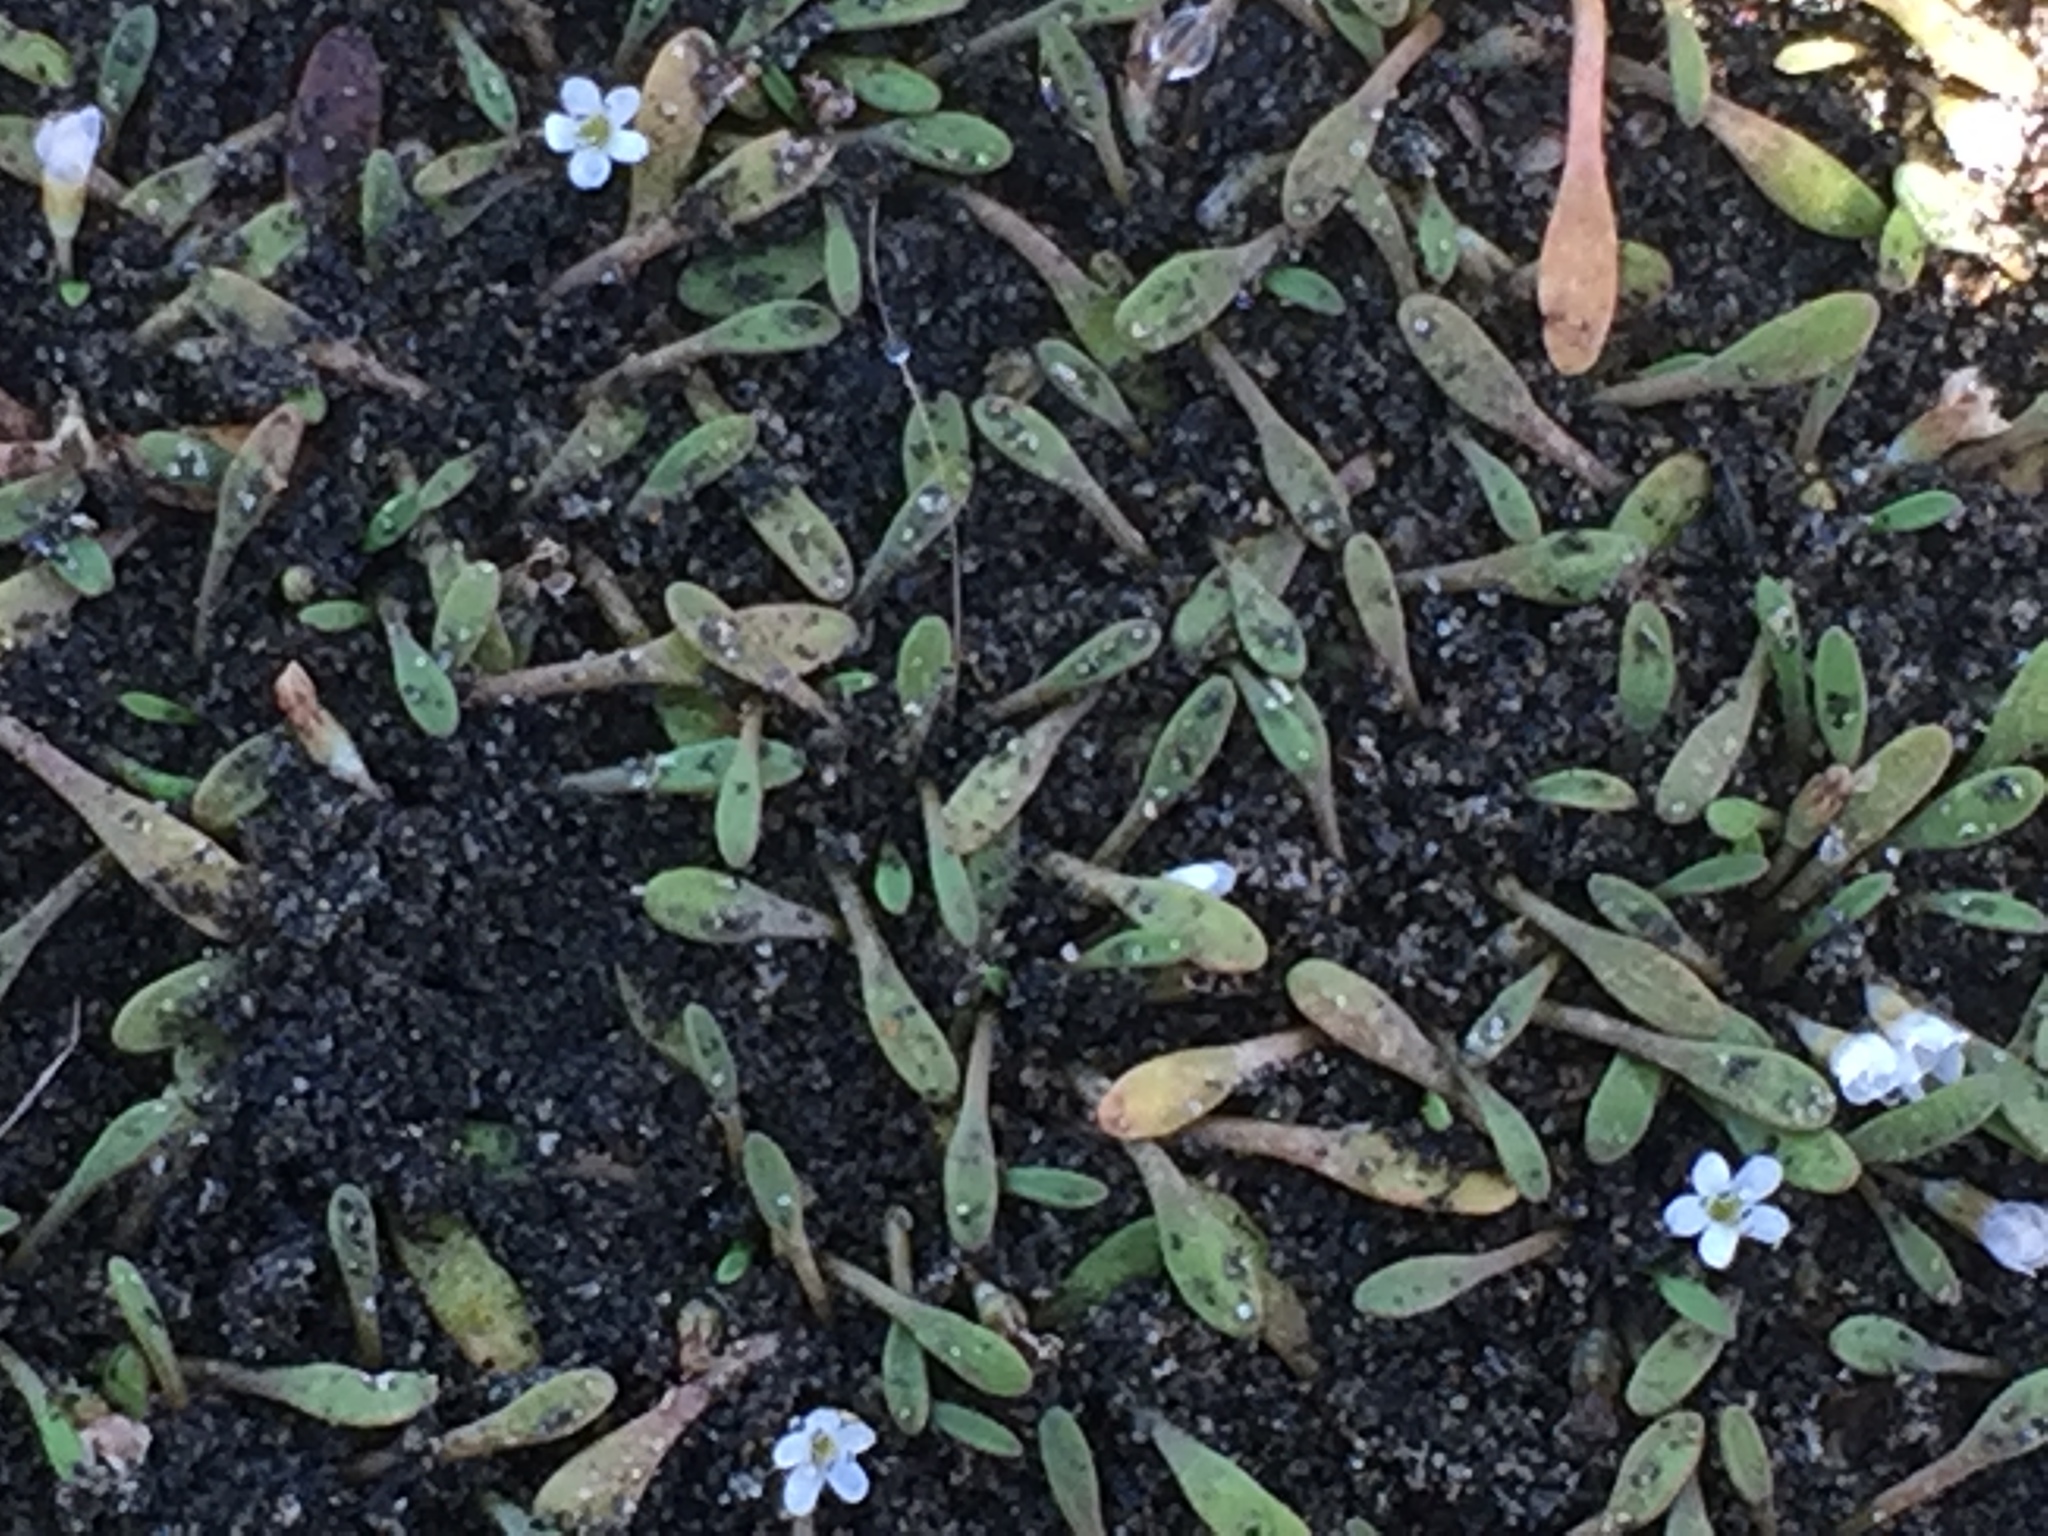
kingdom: Plantae
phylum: Tracheophyta
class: Magnoliopsida
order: Lamiales
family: Scrophulariaceae
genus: Limosella
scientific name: Limosella australis
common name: Welsh mudwort
